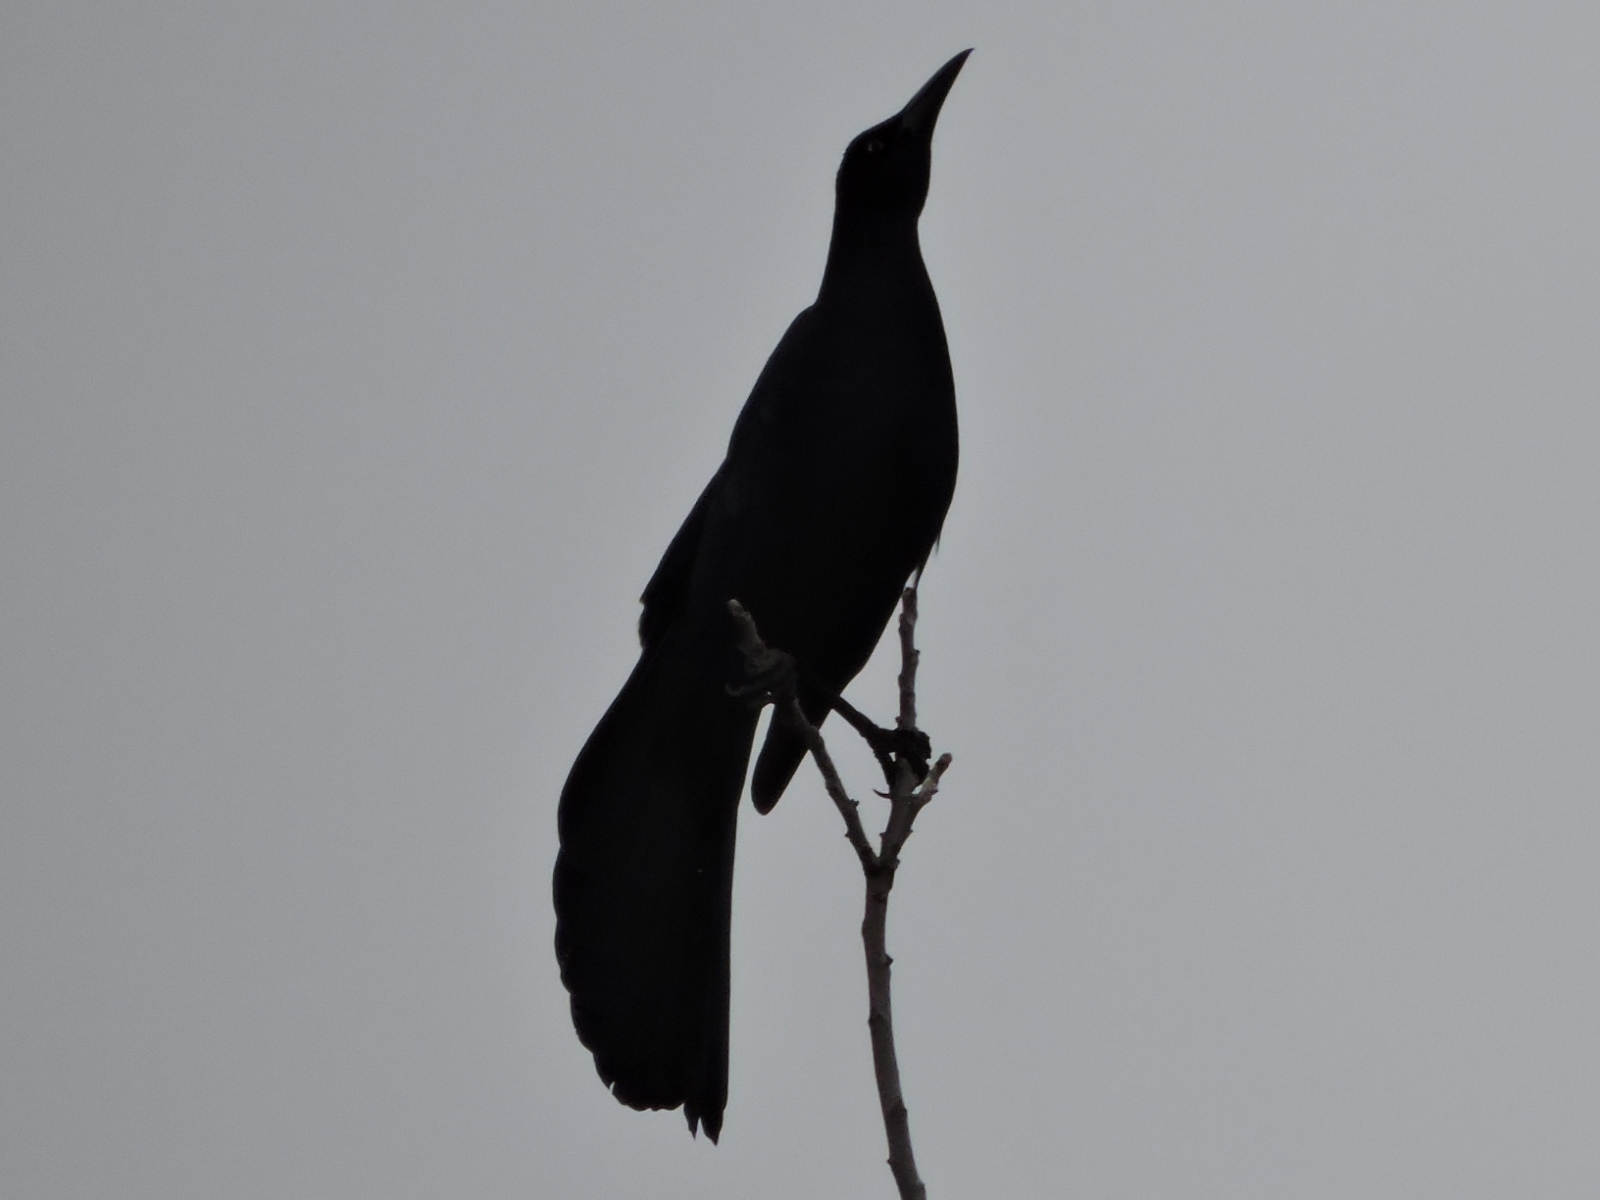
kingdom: Animalia
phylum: Chordata
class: Aves
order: Passeriformes
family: Icteridae
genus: Quiscalus
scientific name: Quiscalus mexicanus
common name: Great-tailed grackle
